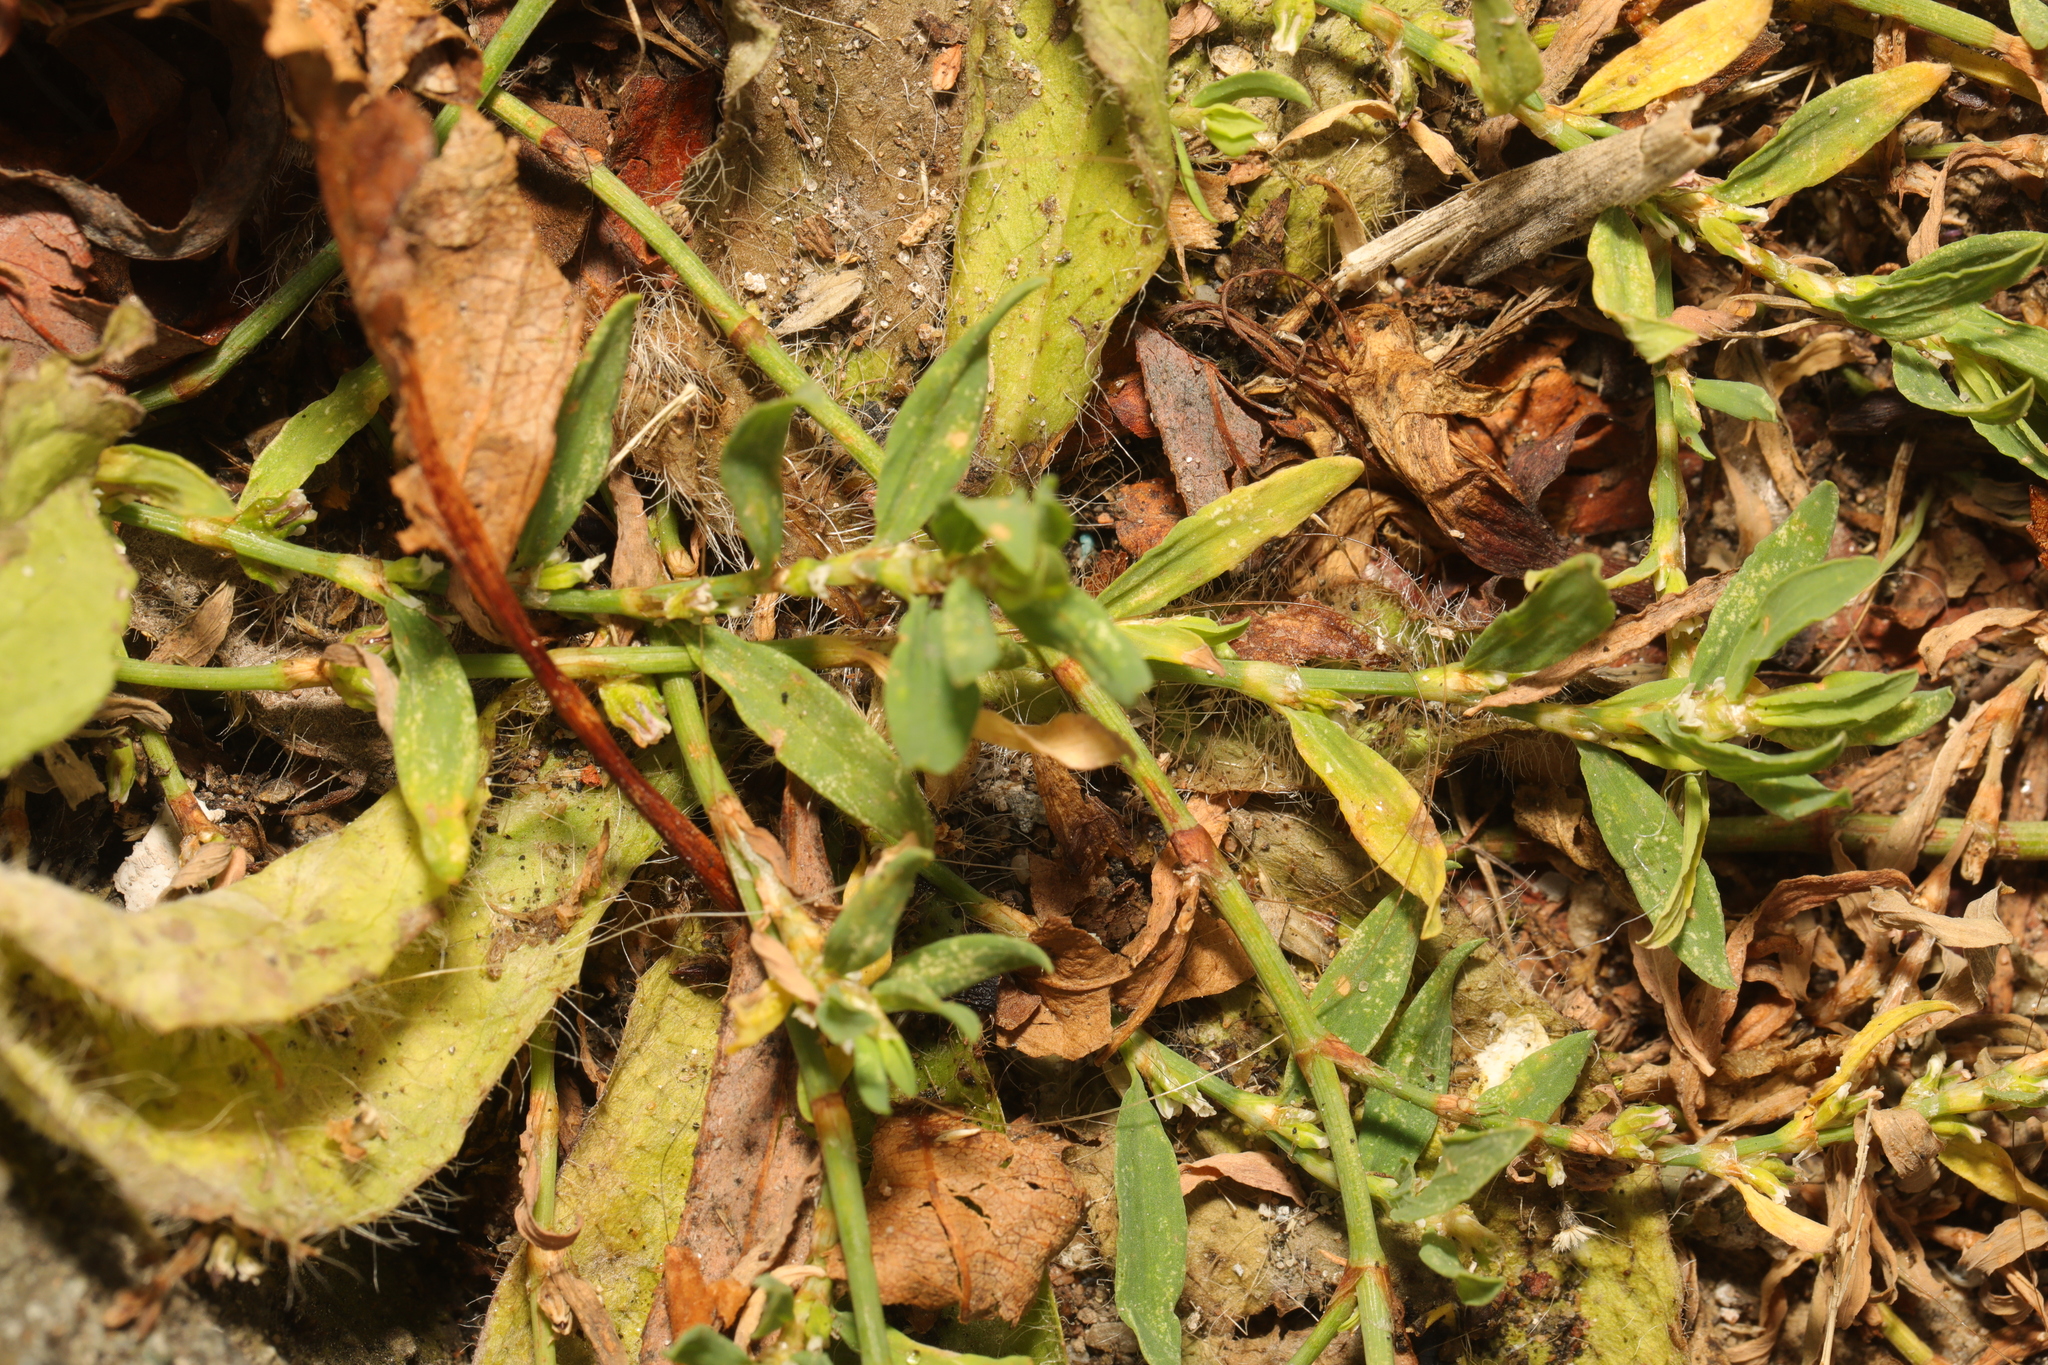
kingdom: Plantae
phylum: Tracheophyta
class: Magnoliopsida
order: Caryophyllales
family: Polygonaceae
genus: Polygonum
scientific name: Polygonum aviculare
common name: Prostrate knotweed
